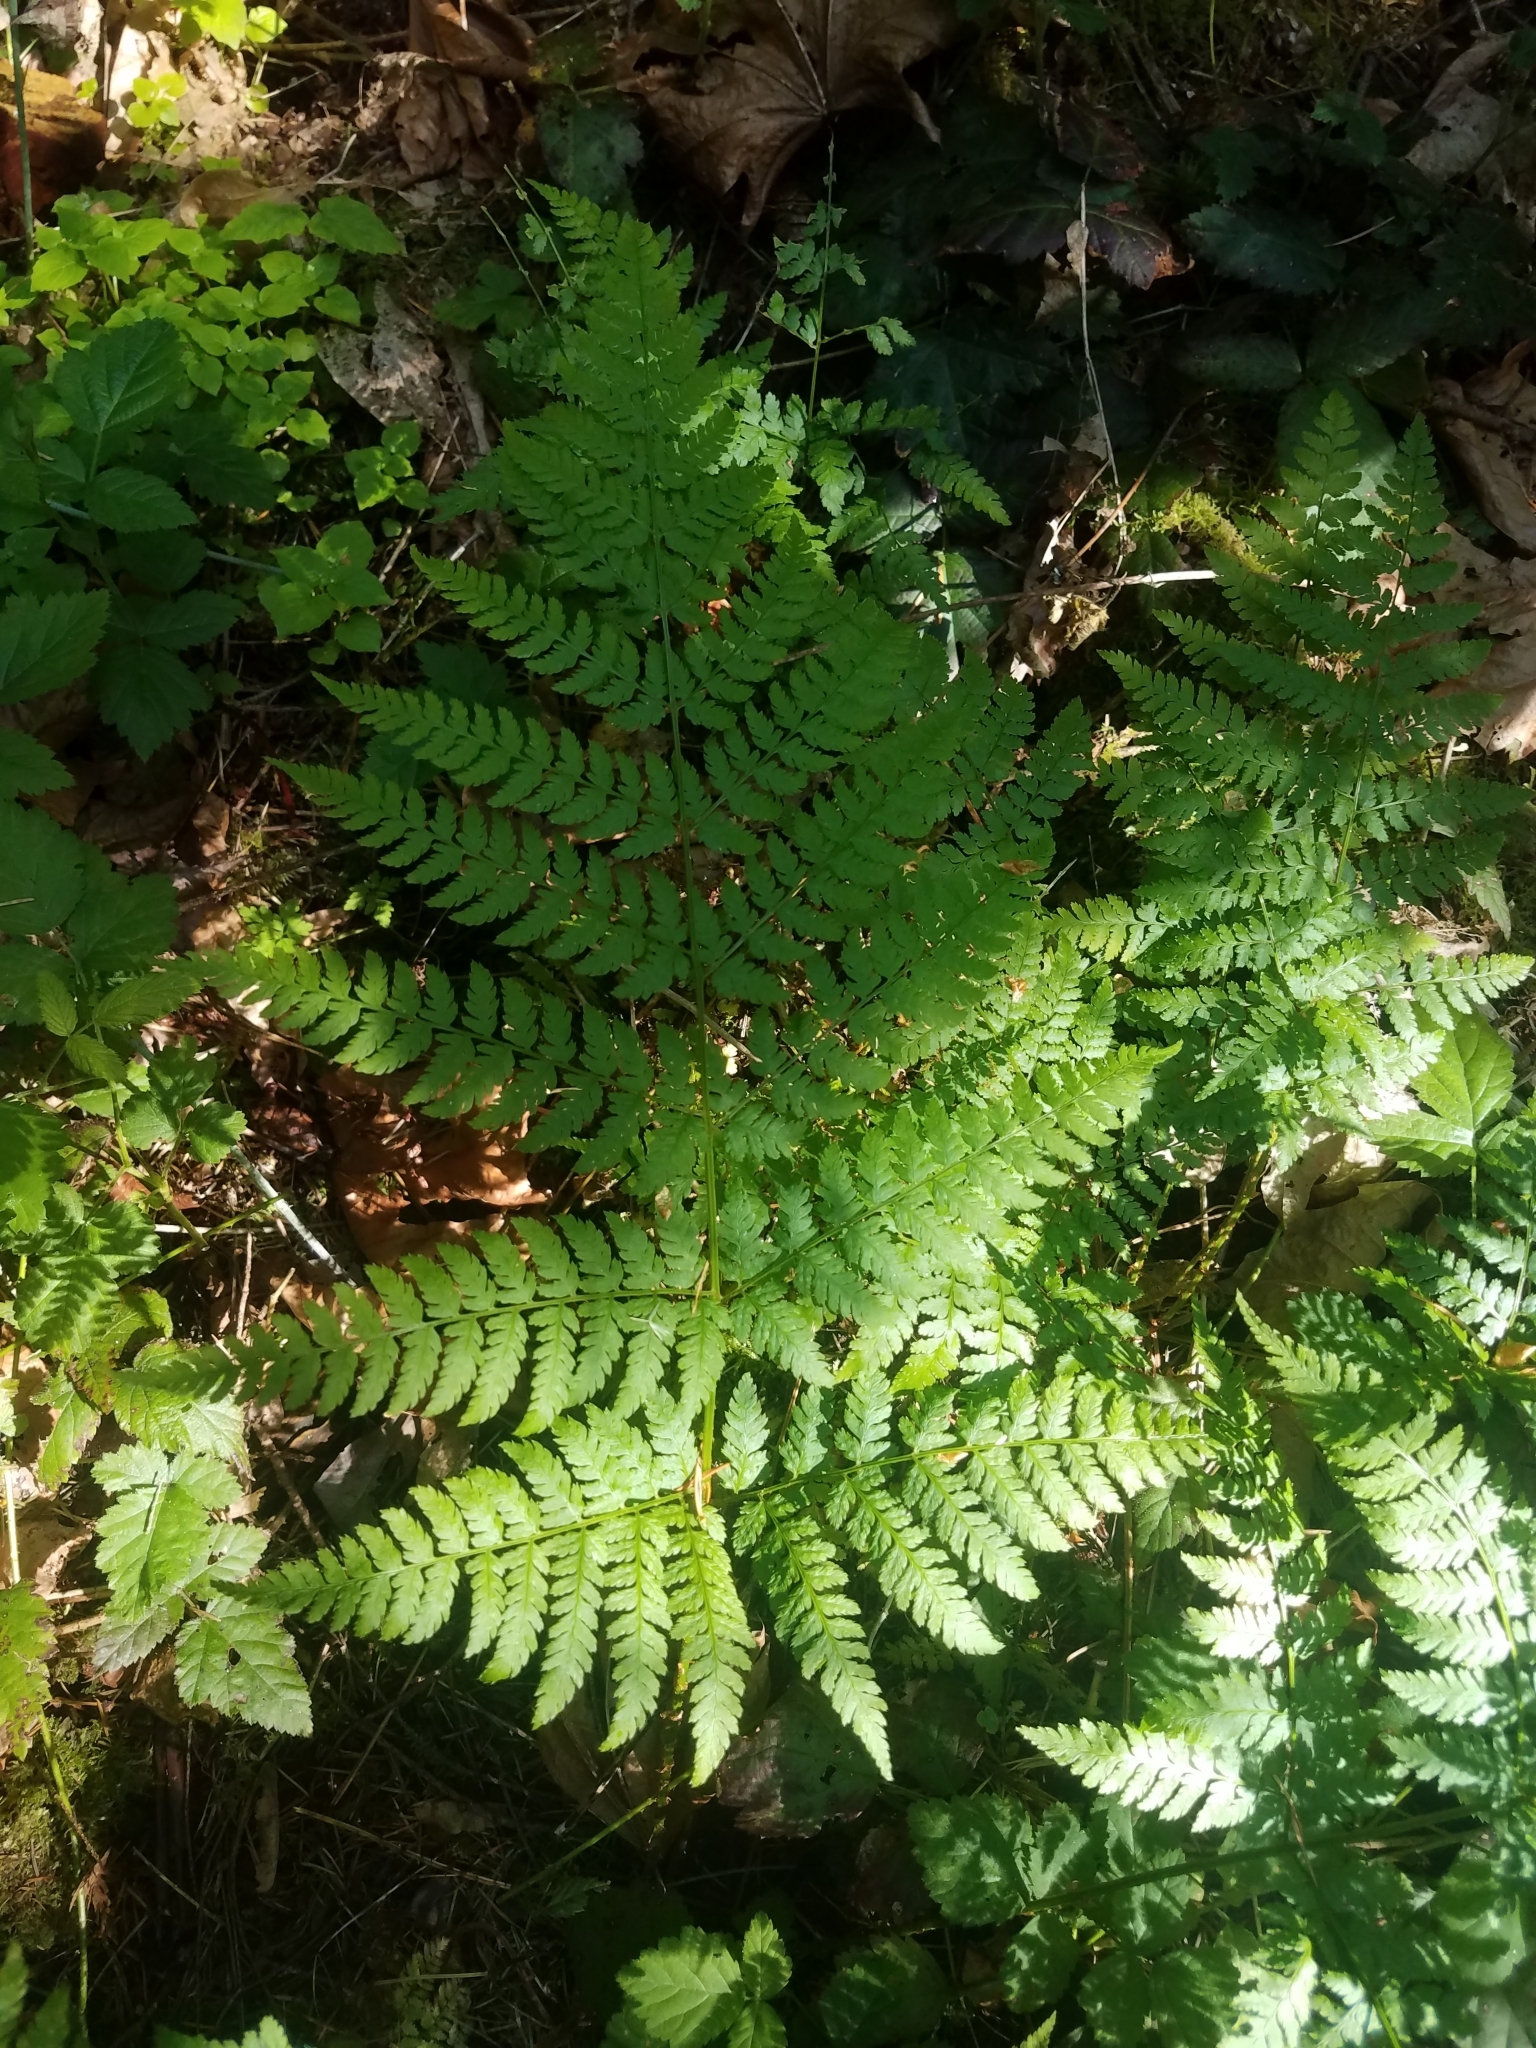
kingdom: Plantae
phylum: Tracheophyta
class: Polypodiopsida
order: Polypodiales
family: Dryopteridaceae
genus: Dryopteris
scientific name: Dryopteris expansa
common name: Northern buckler fern
